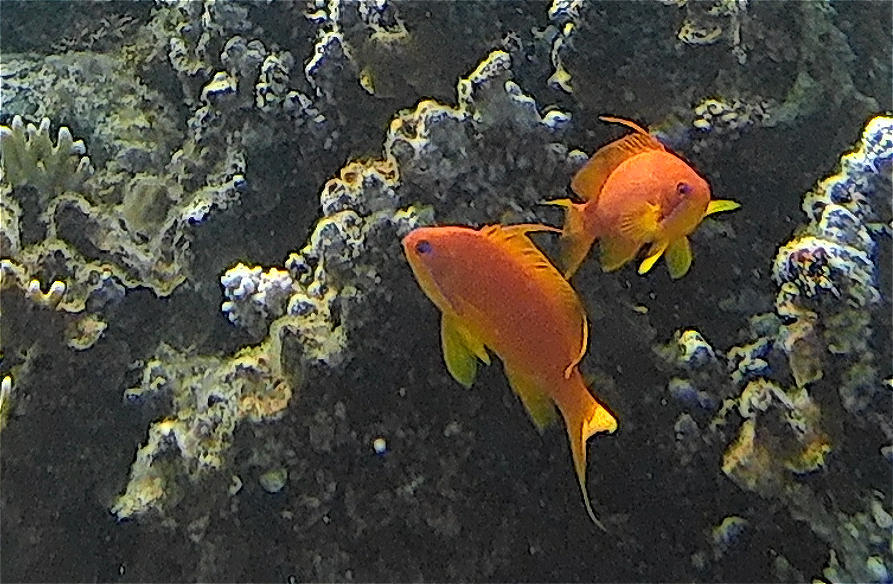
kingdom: Animalia
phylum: Chordata
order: Perciformes
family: Serranidae
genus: Pseudanthias
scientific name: Pseudanthias squamipinnis
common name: Scalefin anthias
